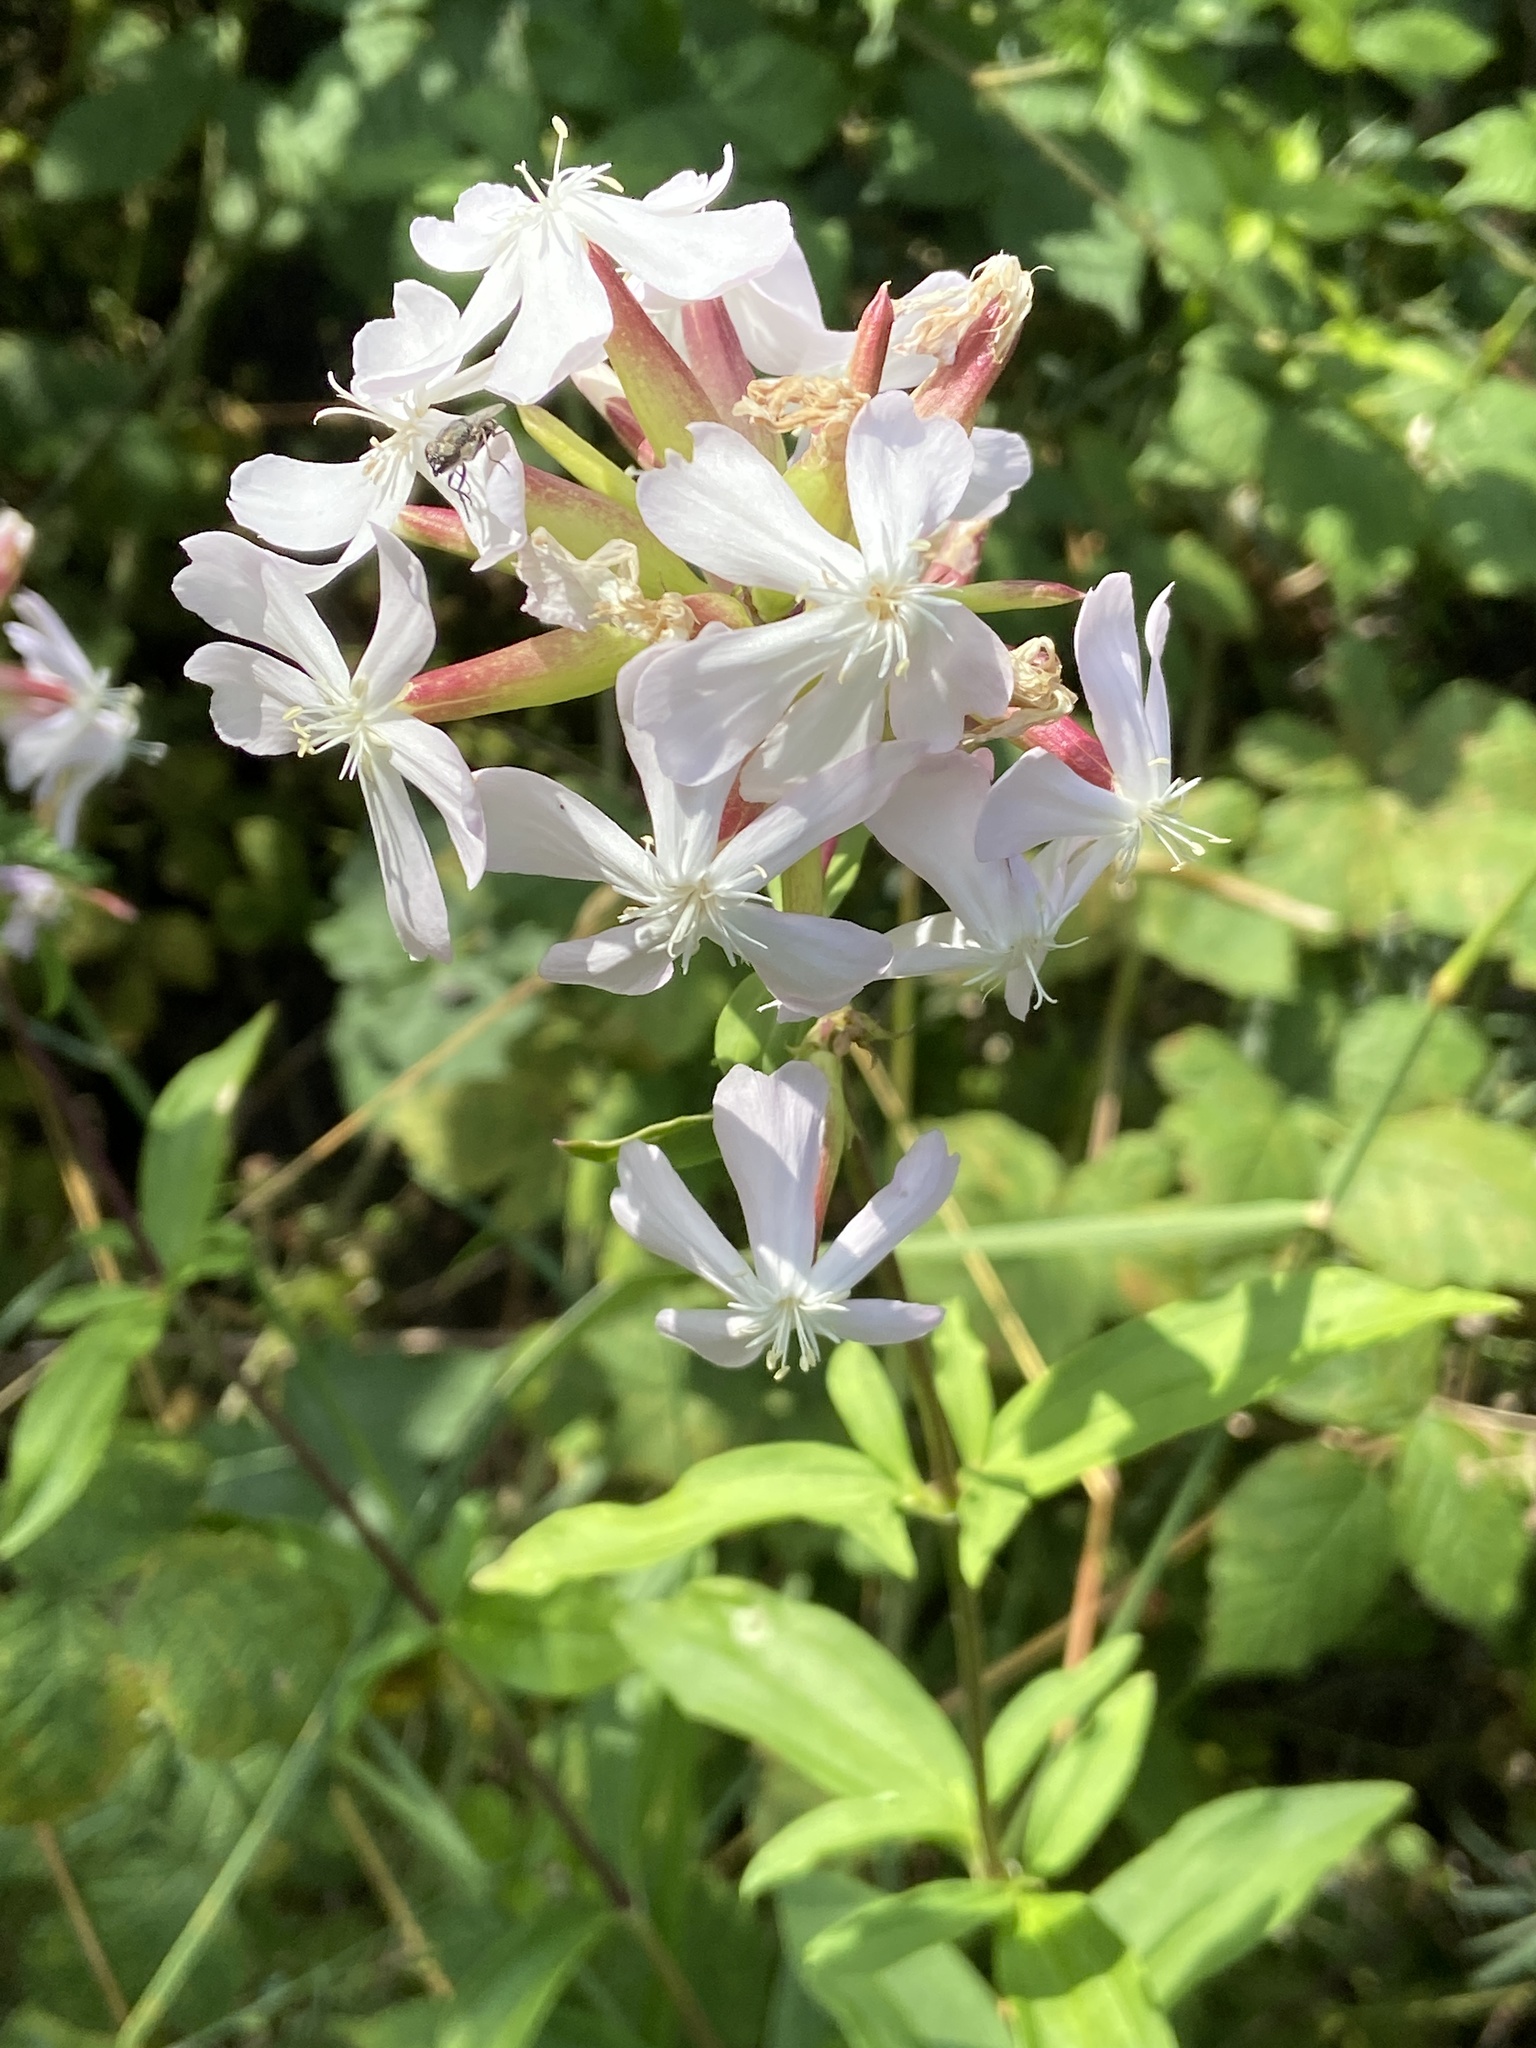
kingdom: Plantae
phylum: Tracheophyta
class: Magnoliopsida
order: Caryophyllales
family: Caryophyllaceae
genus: Saponaria
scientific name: Saponaria officinalis
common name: Soapwort
